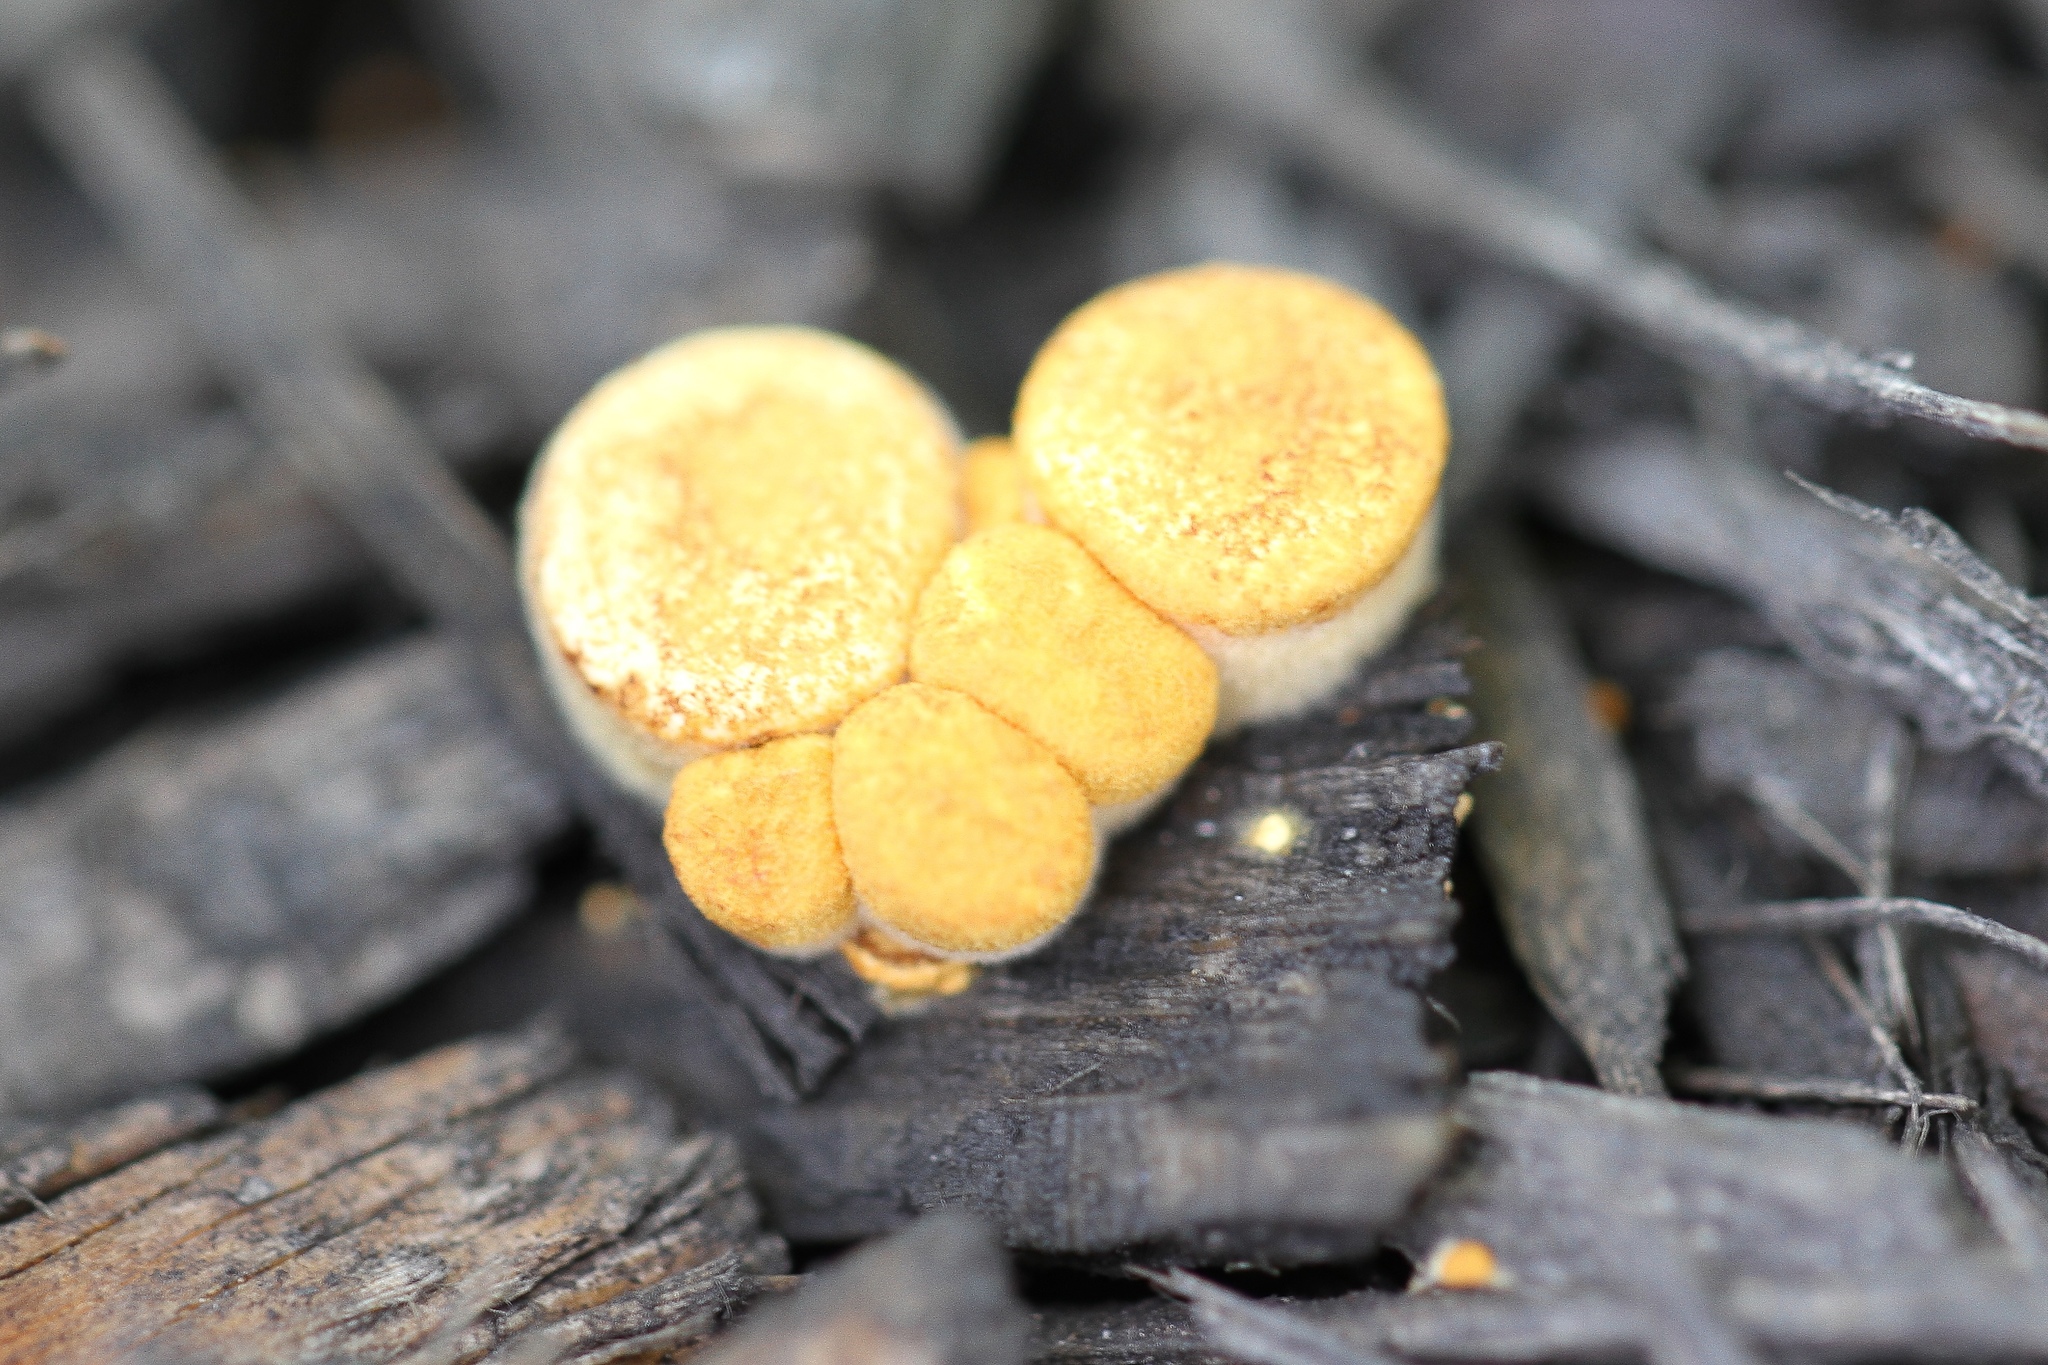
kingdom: Fungi
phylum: Basidiomycota
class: Agaricomycetes
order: Agaricales
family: Nidulariaceae
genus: Crucibulum
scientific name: Crucibulum laeve
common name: Common bird's nest
